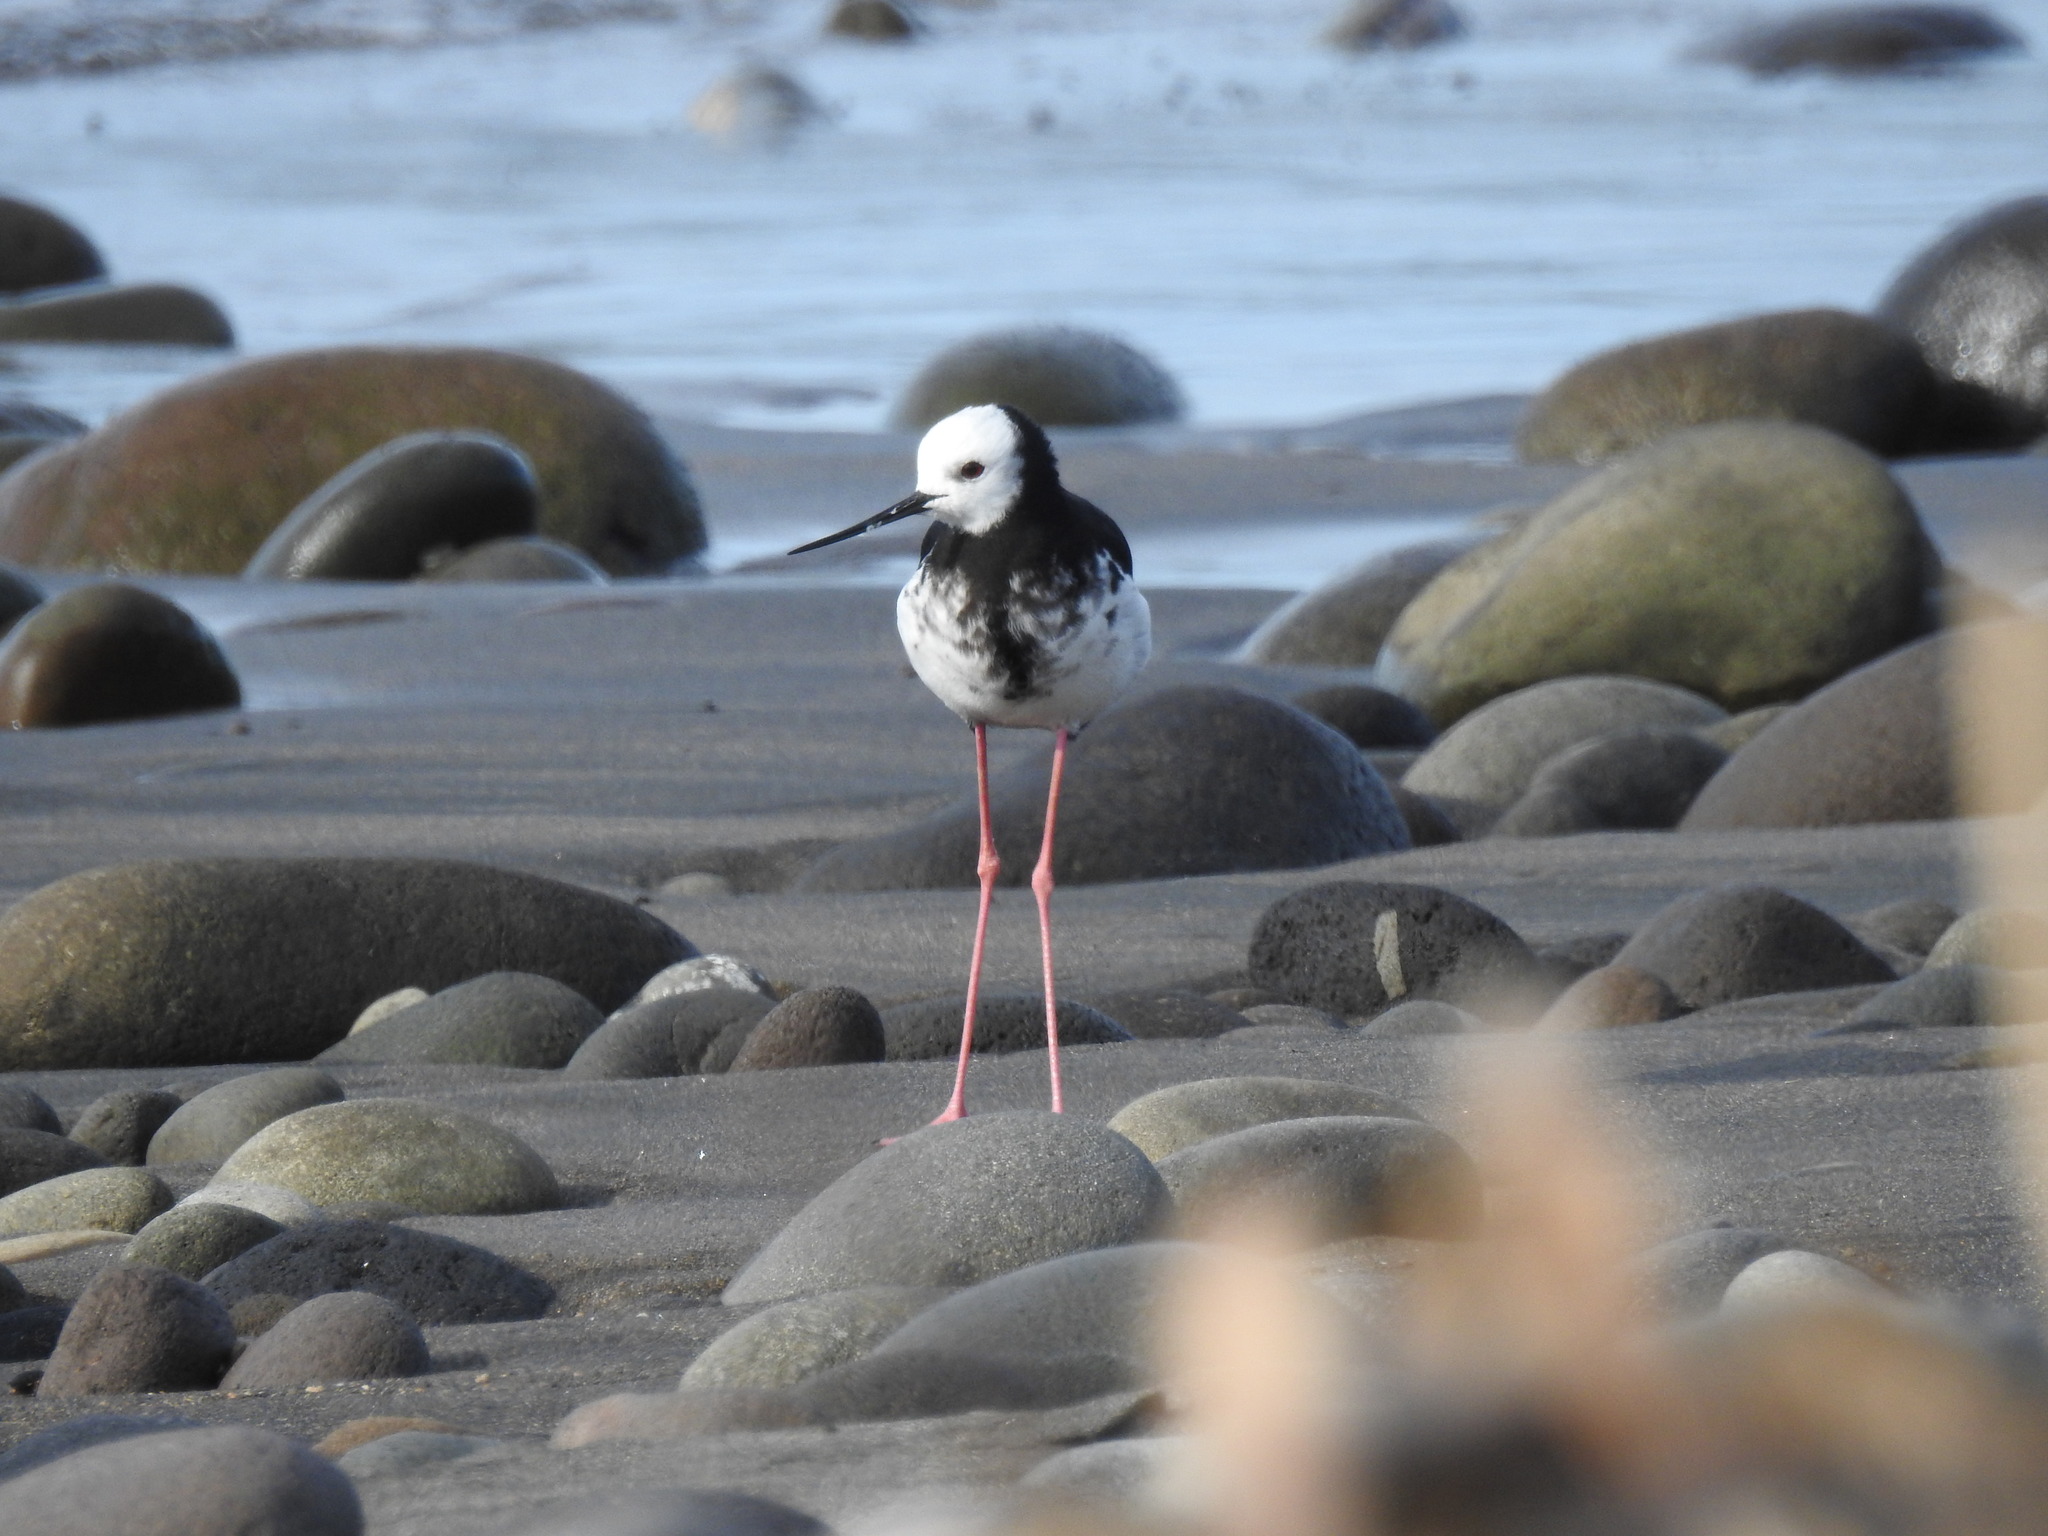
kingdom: Animalia
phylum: Chordata
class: Aves
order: Charadriiformes
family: Recurvirostridae
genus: Himantopus
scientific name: Himantopus
